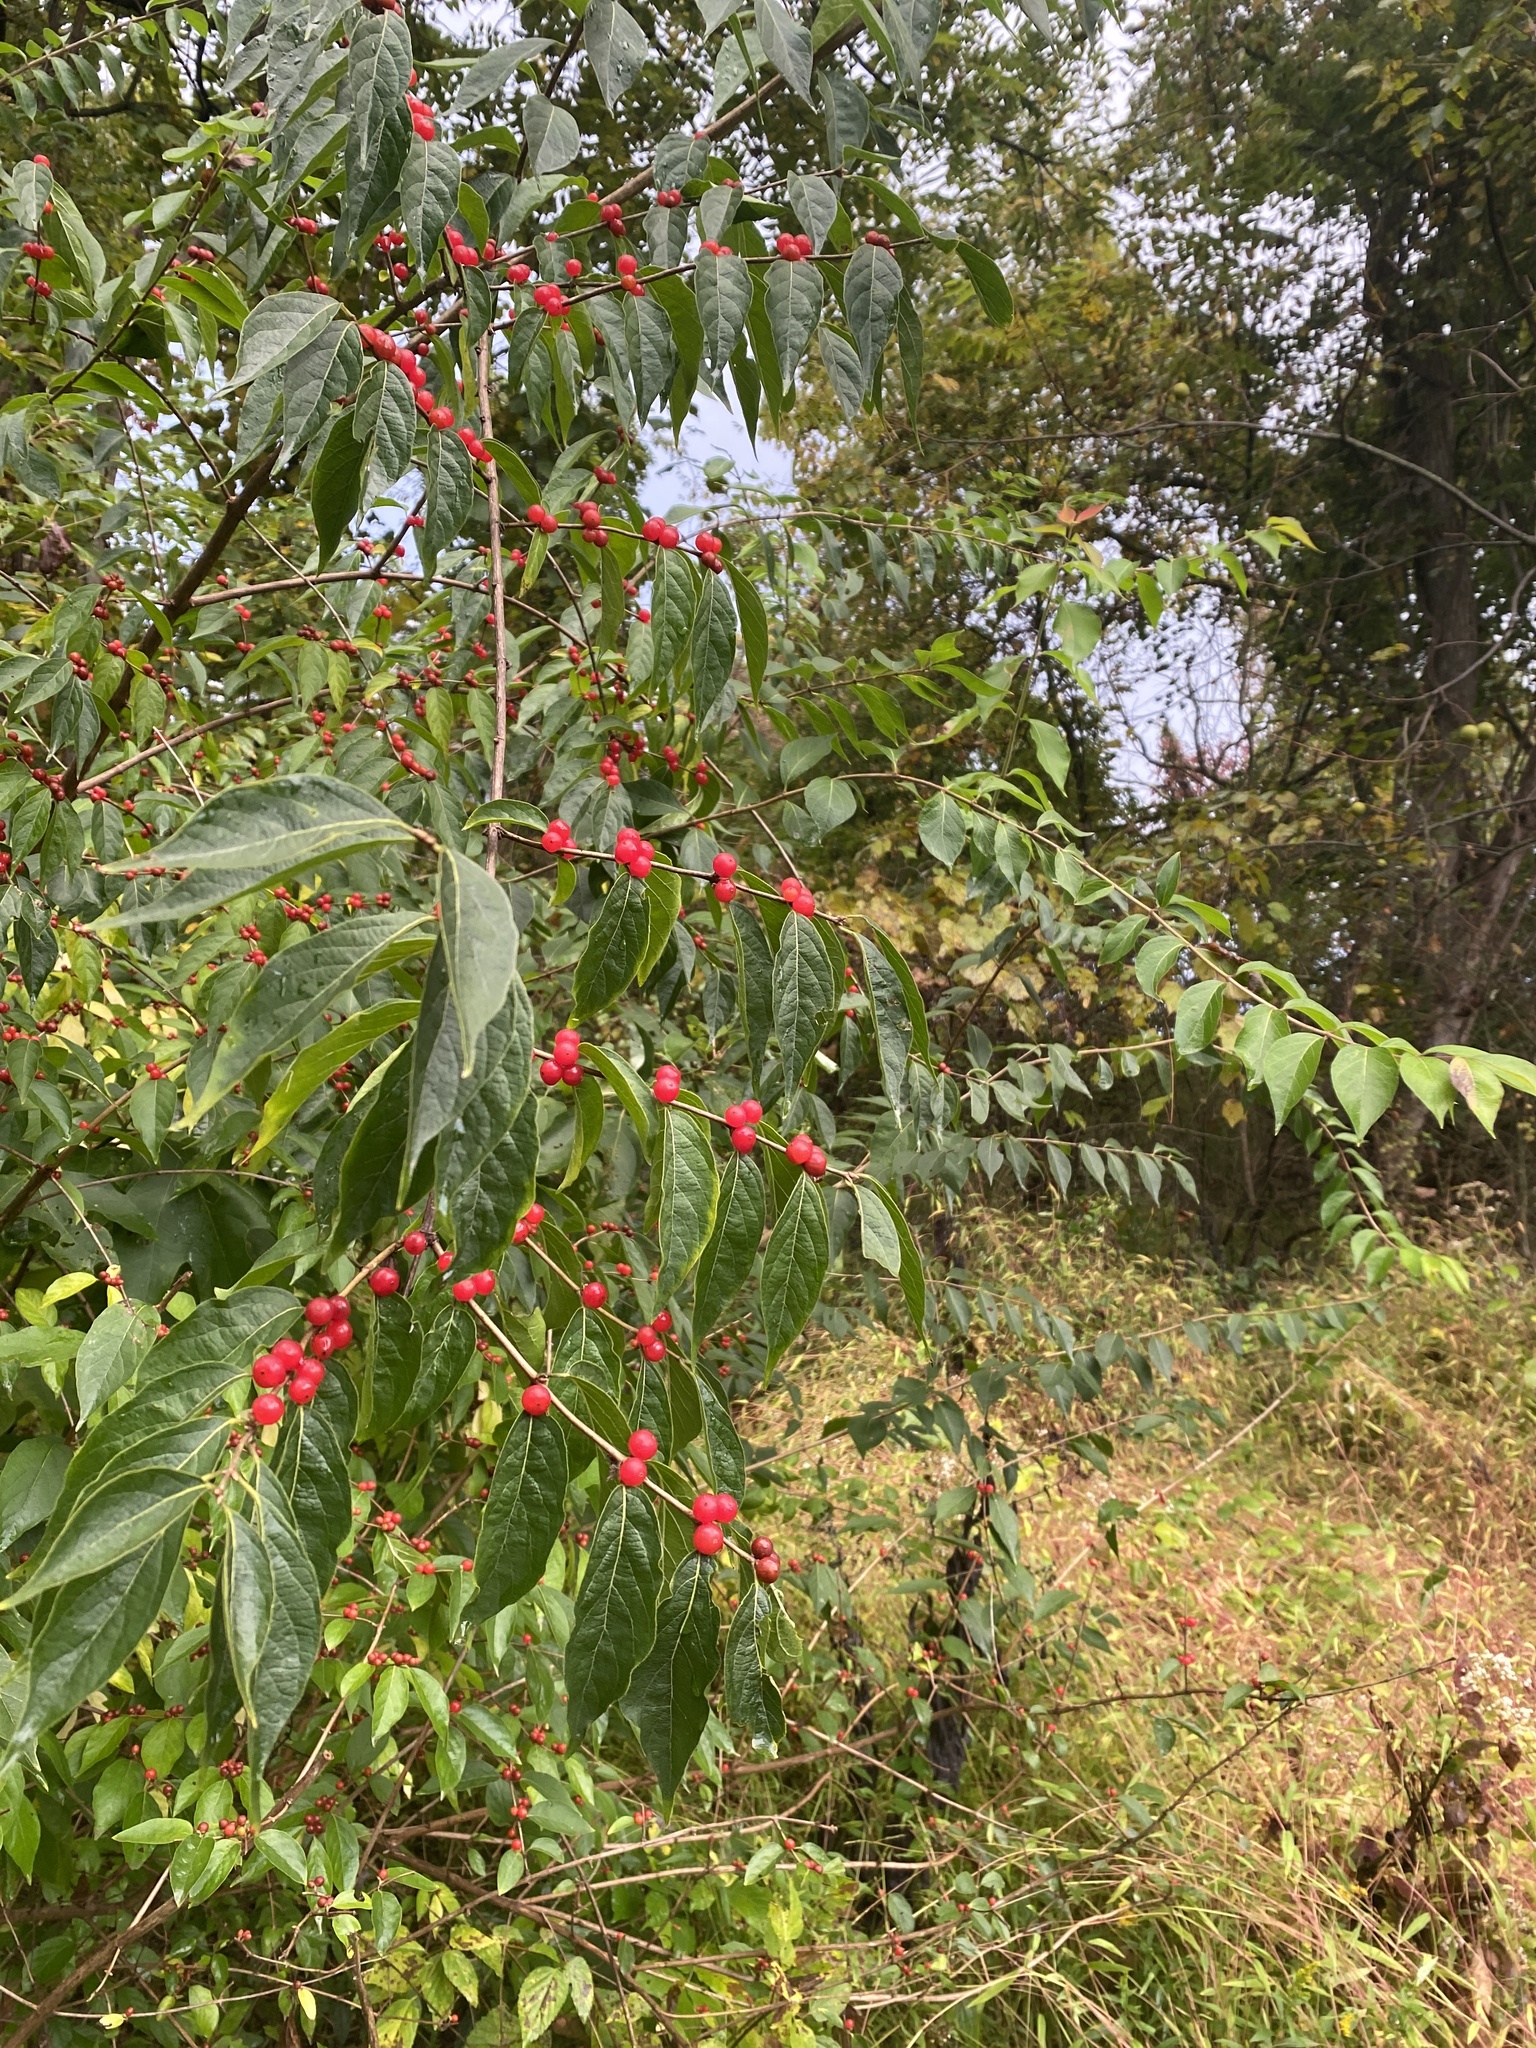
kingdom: Plantae
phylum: Tracheophyta
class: Magnoliopsida
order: Dipsacales
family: Caprifoliaceae
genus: Lonicera
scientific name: Lonicera maackii
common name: Amur honeysuckle
